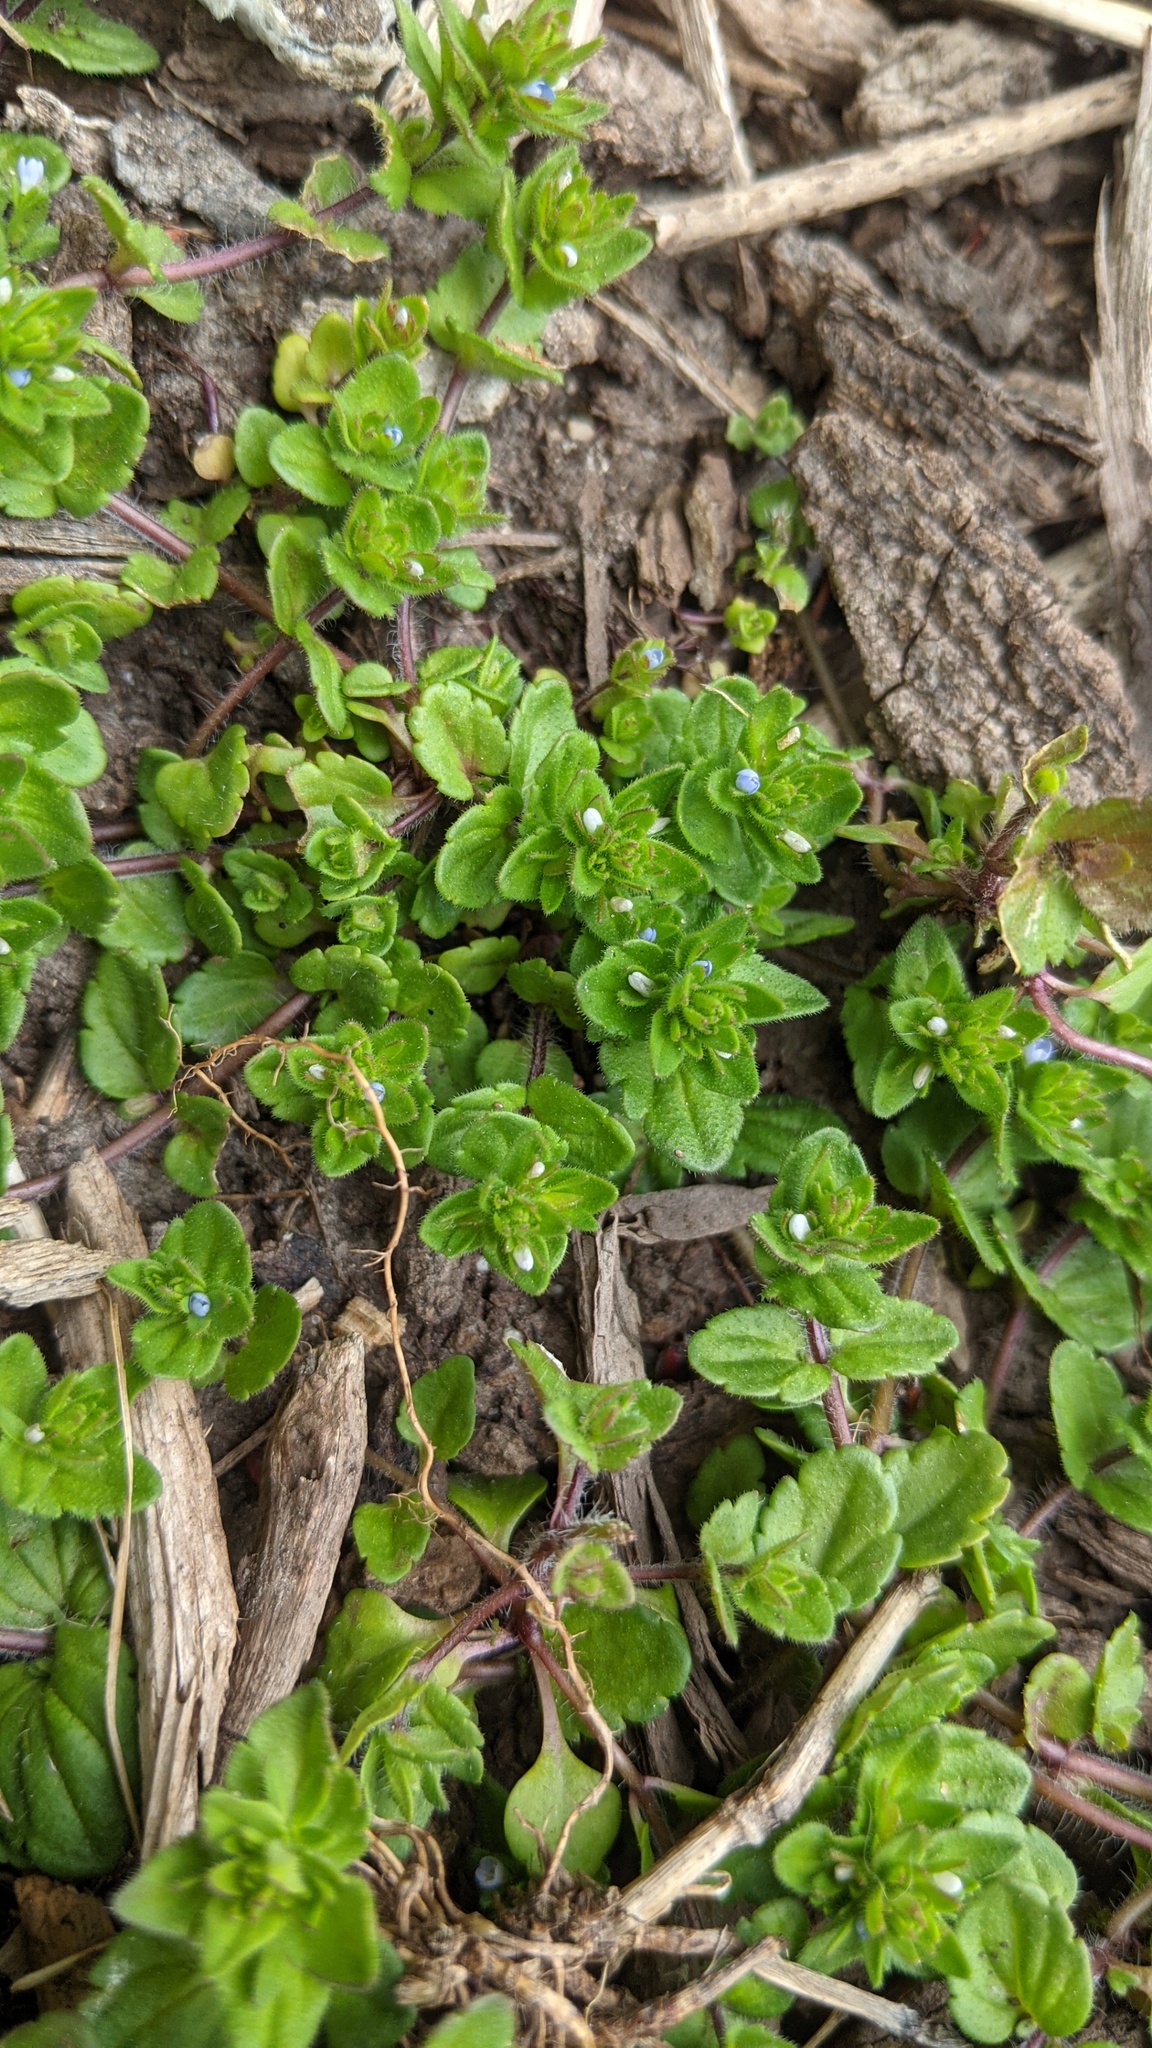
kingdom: Plantae
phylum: Tracheophyta
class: Magnoliopsida
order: Lamiales
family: Plantaginaceae
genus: Veronica
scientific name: Veronica arvensis
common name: Corn speedwell
